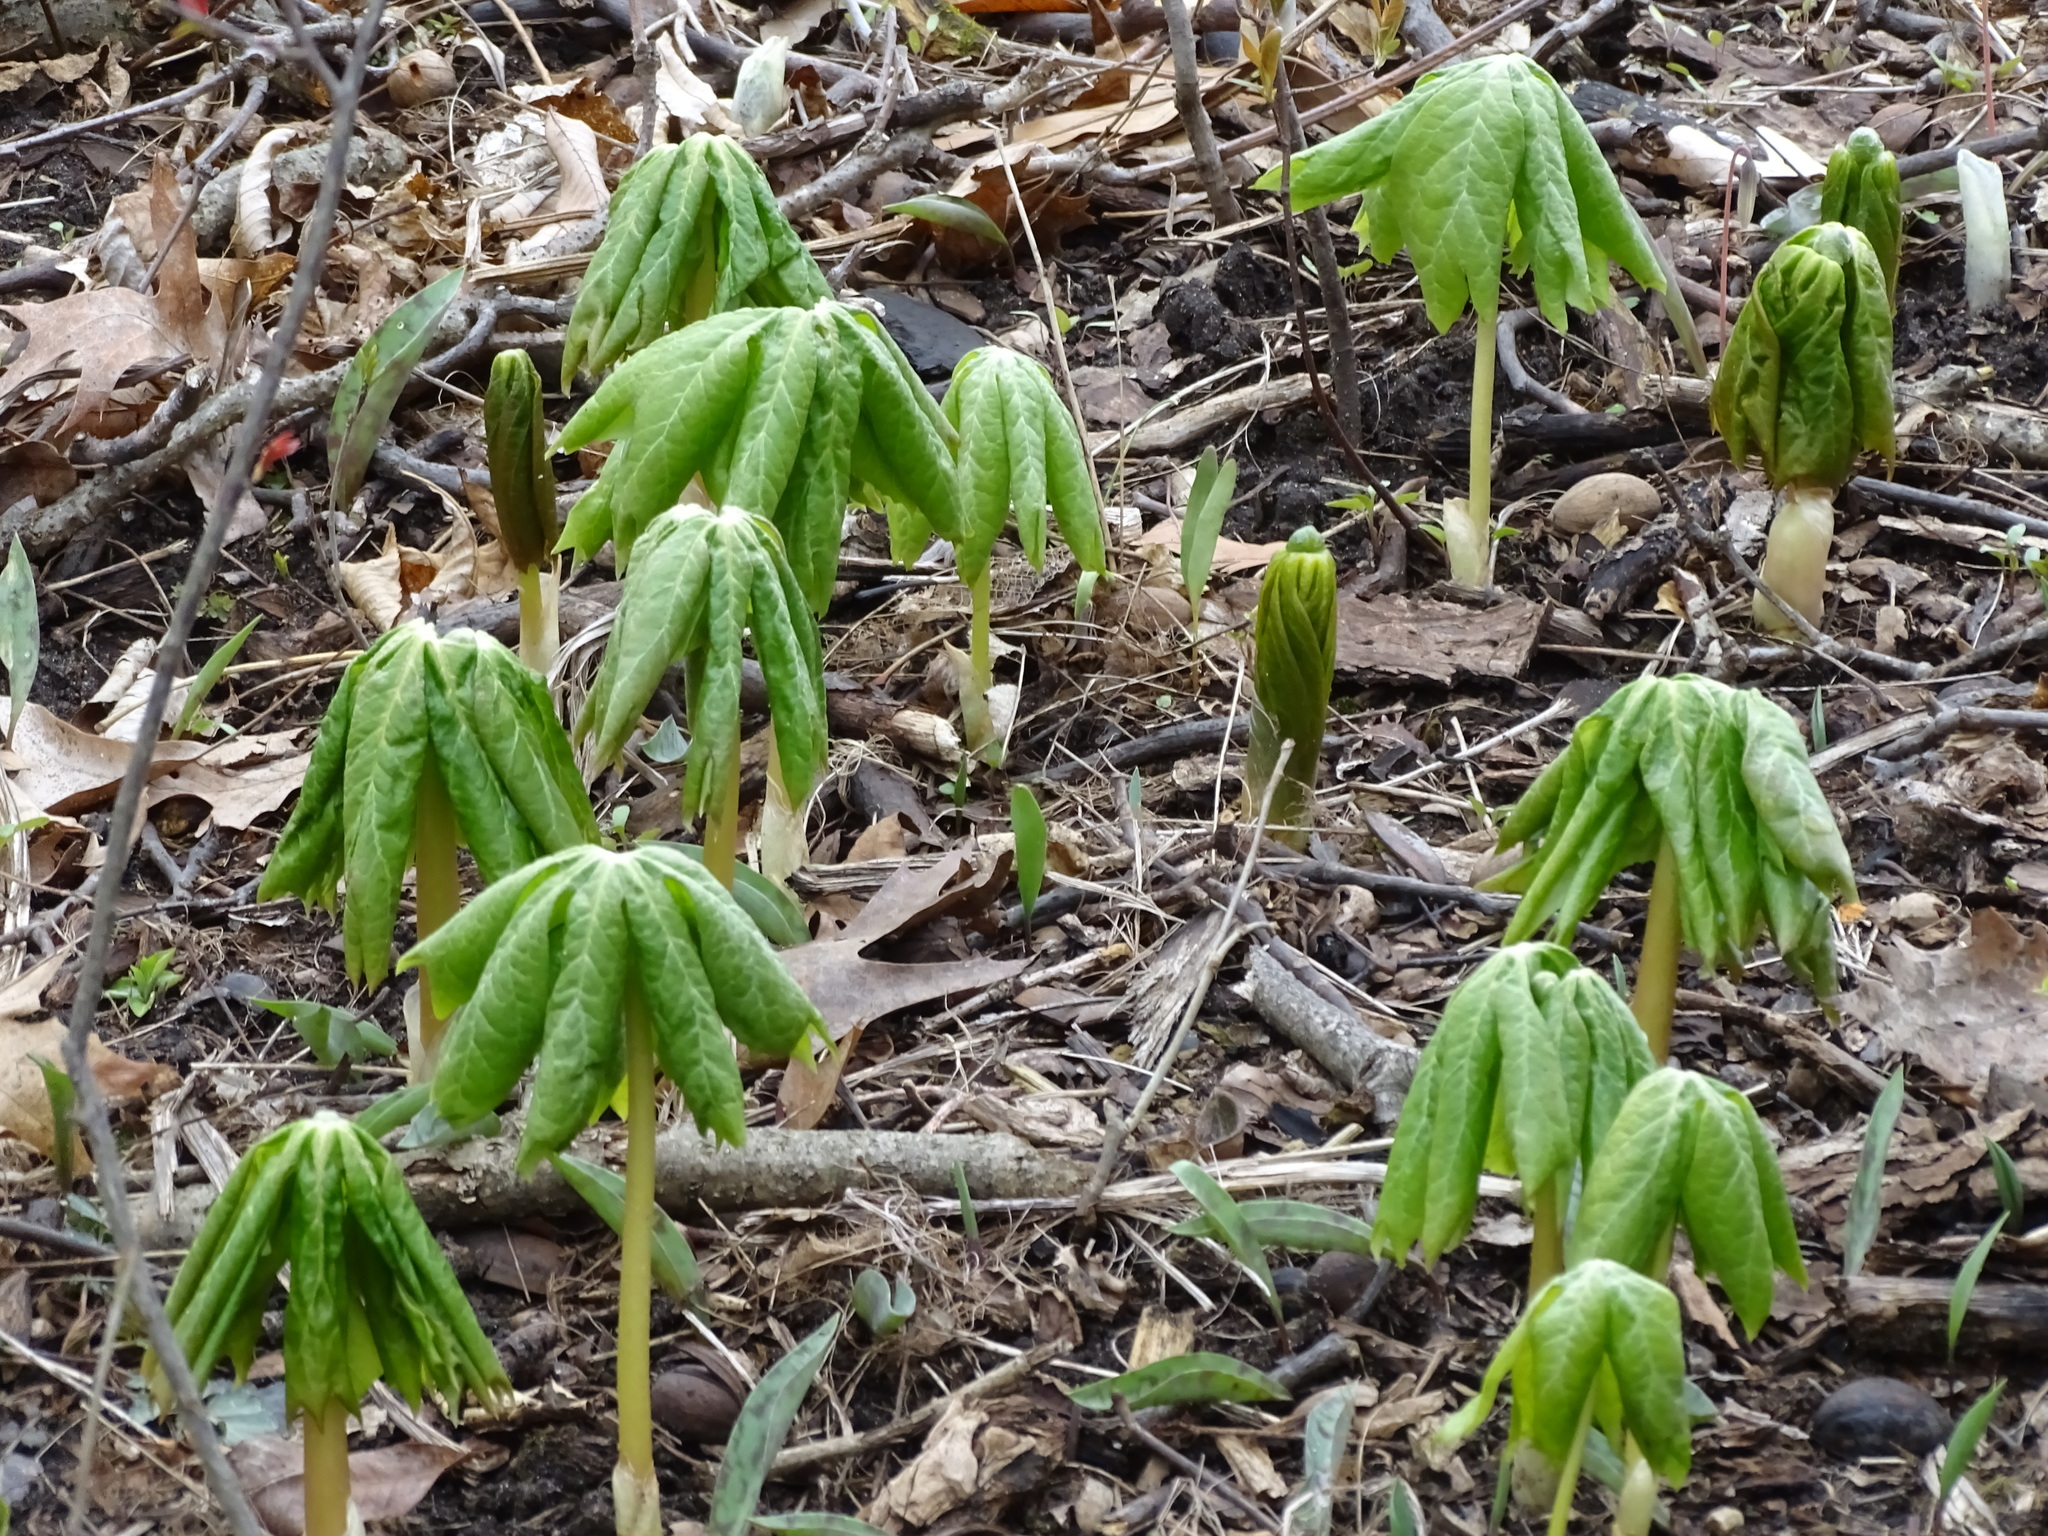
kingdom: Plantae
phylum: Tracheophyta
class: Magnoliopsida
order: Ranunculales
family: Berberidaceae
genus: Podophyllum
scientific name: Podophyllum peltatum
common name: Wild mandrake
